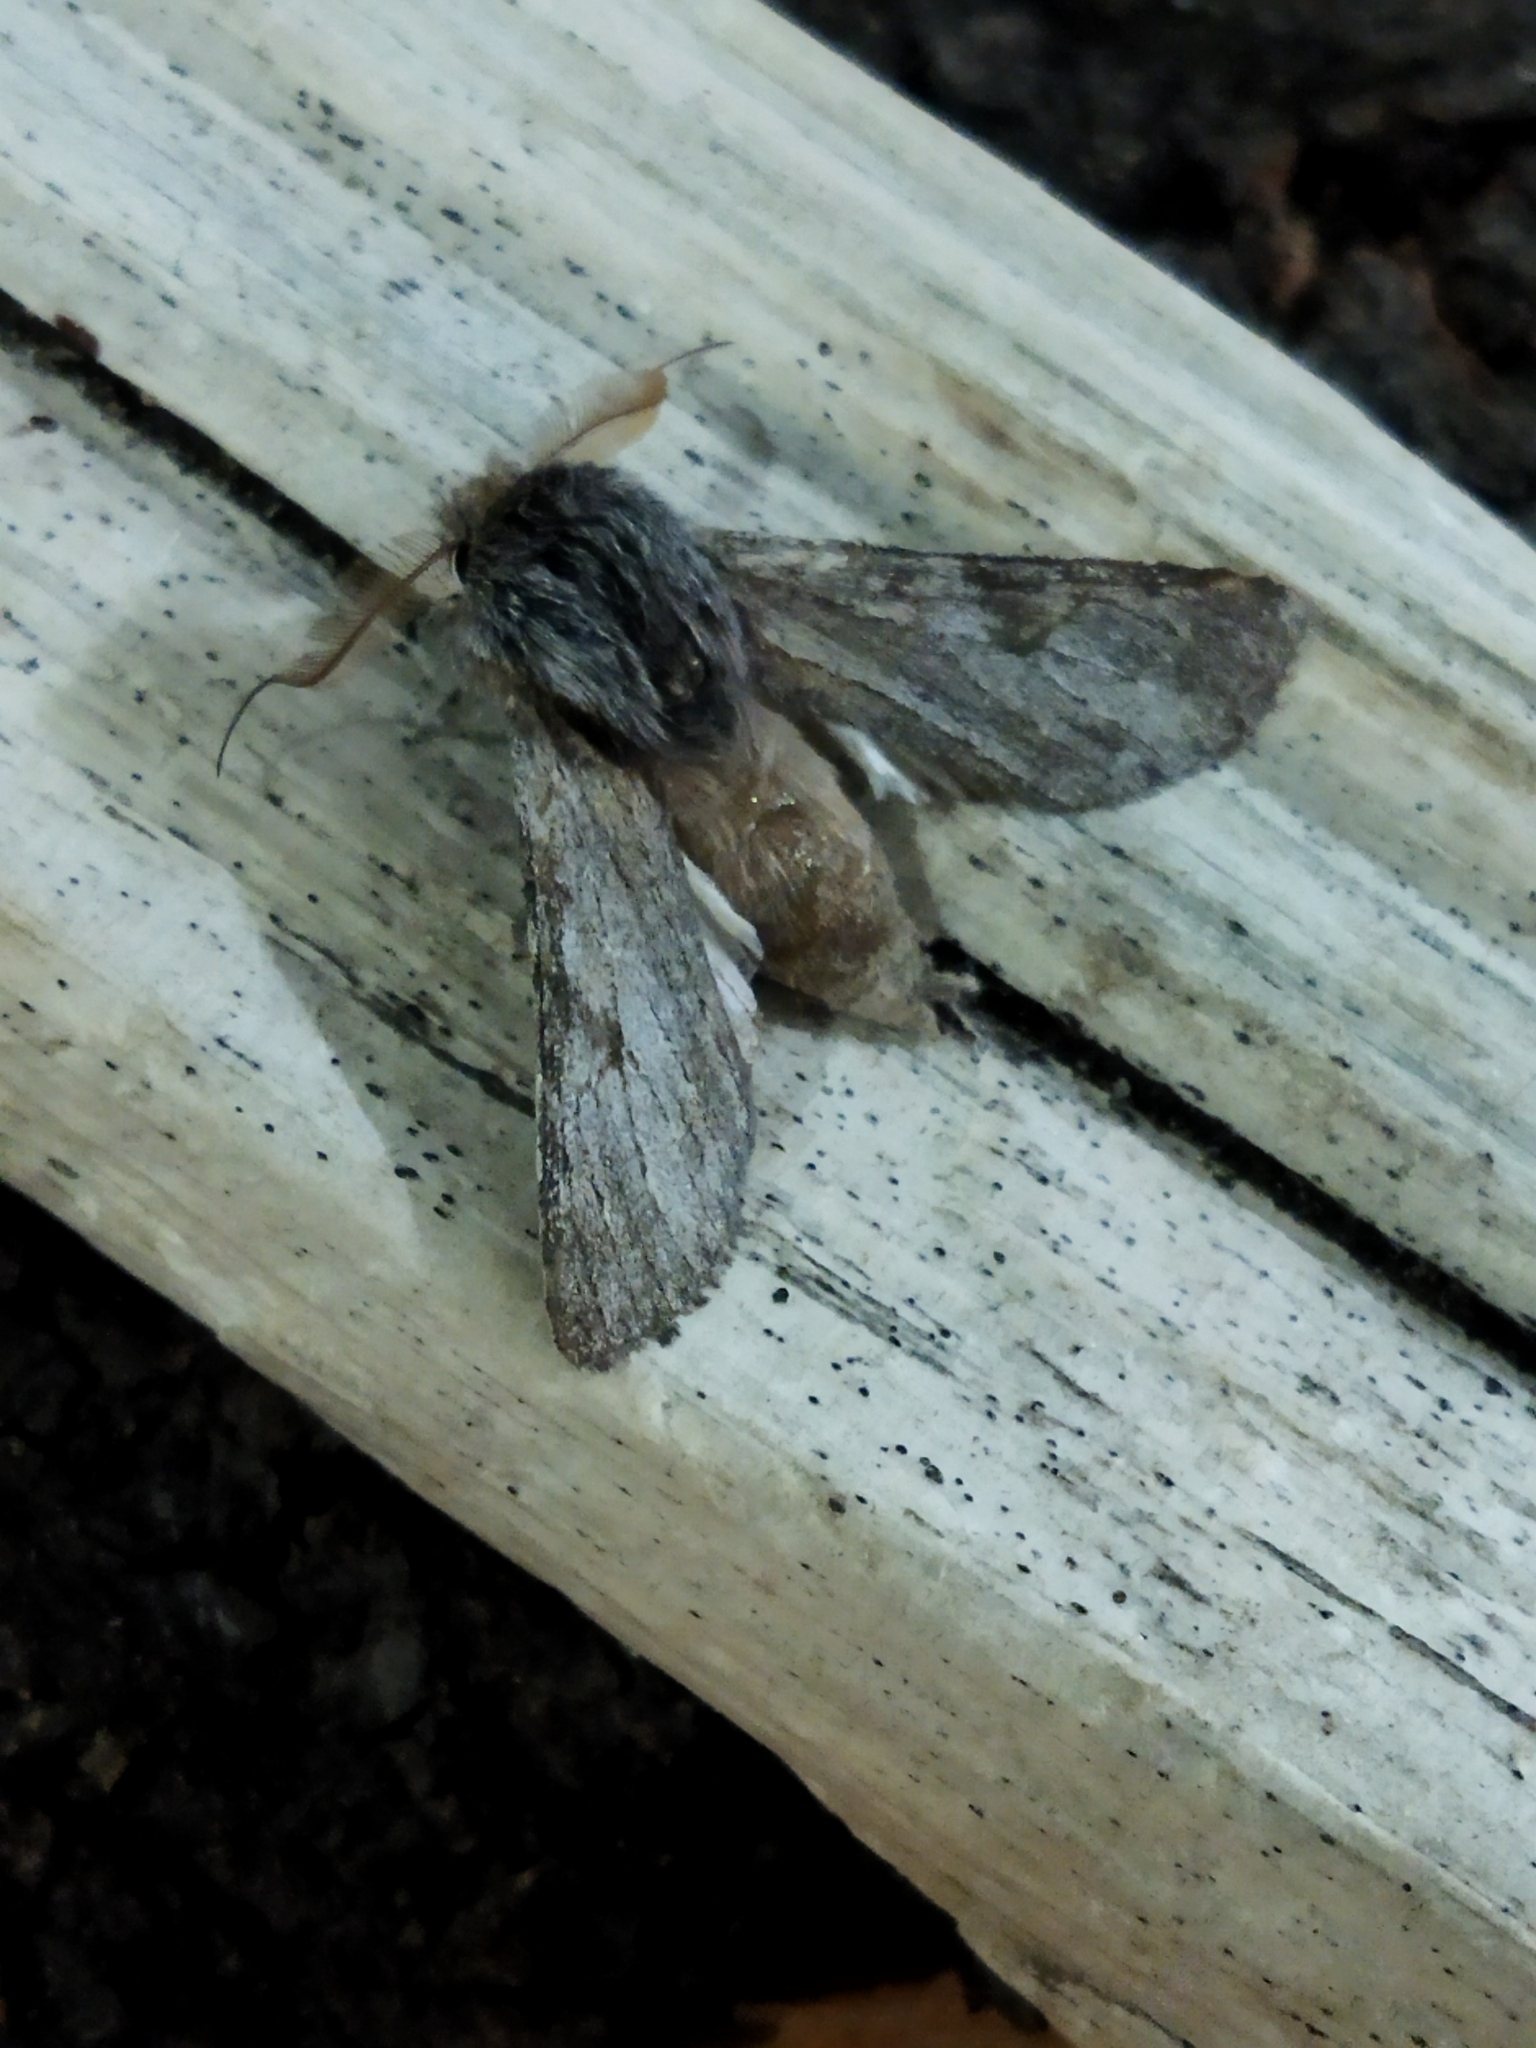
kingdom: Animalia
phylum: Arthropoda
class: Insecta
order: Lepidoptera
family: Notodontidae
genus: Dicranura
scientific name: Dicranura ulmi
